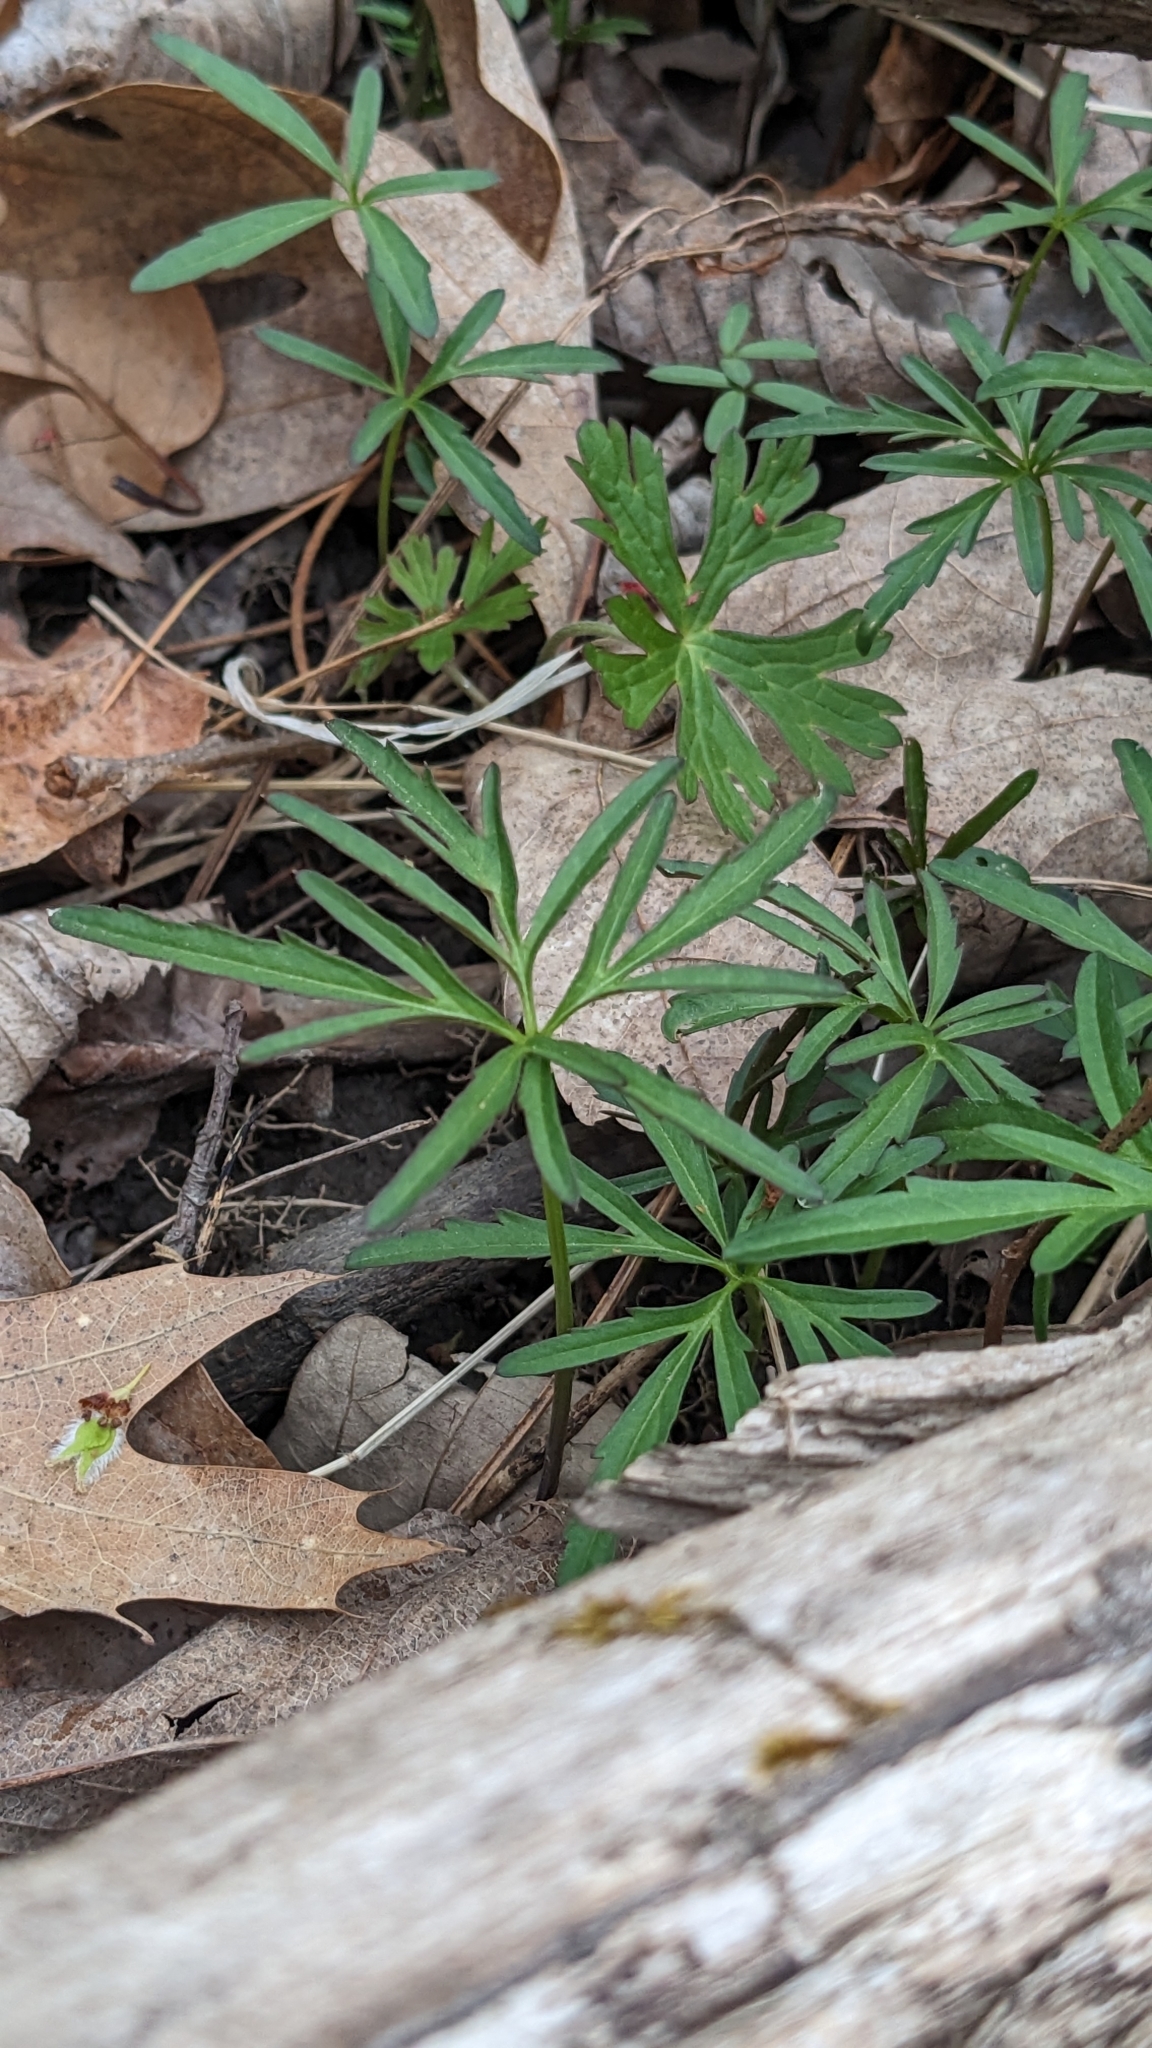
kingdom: Plantae
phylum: Tracheophyta
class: Magnoliopsida
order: Brassicales
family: Brassicaceae
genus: Cardamine
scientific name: Cardamine concatenata
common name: Cut-leaf toothcup
